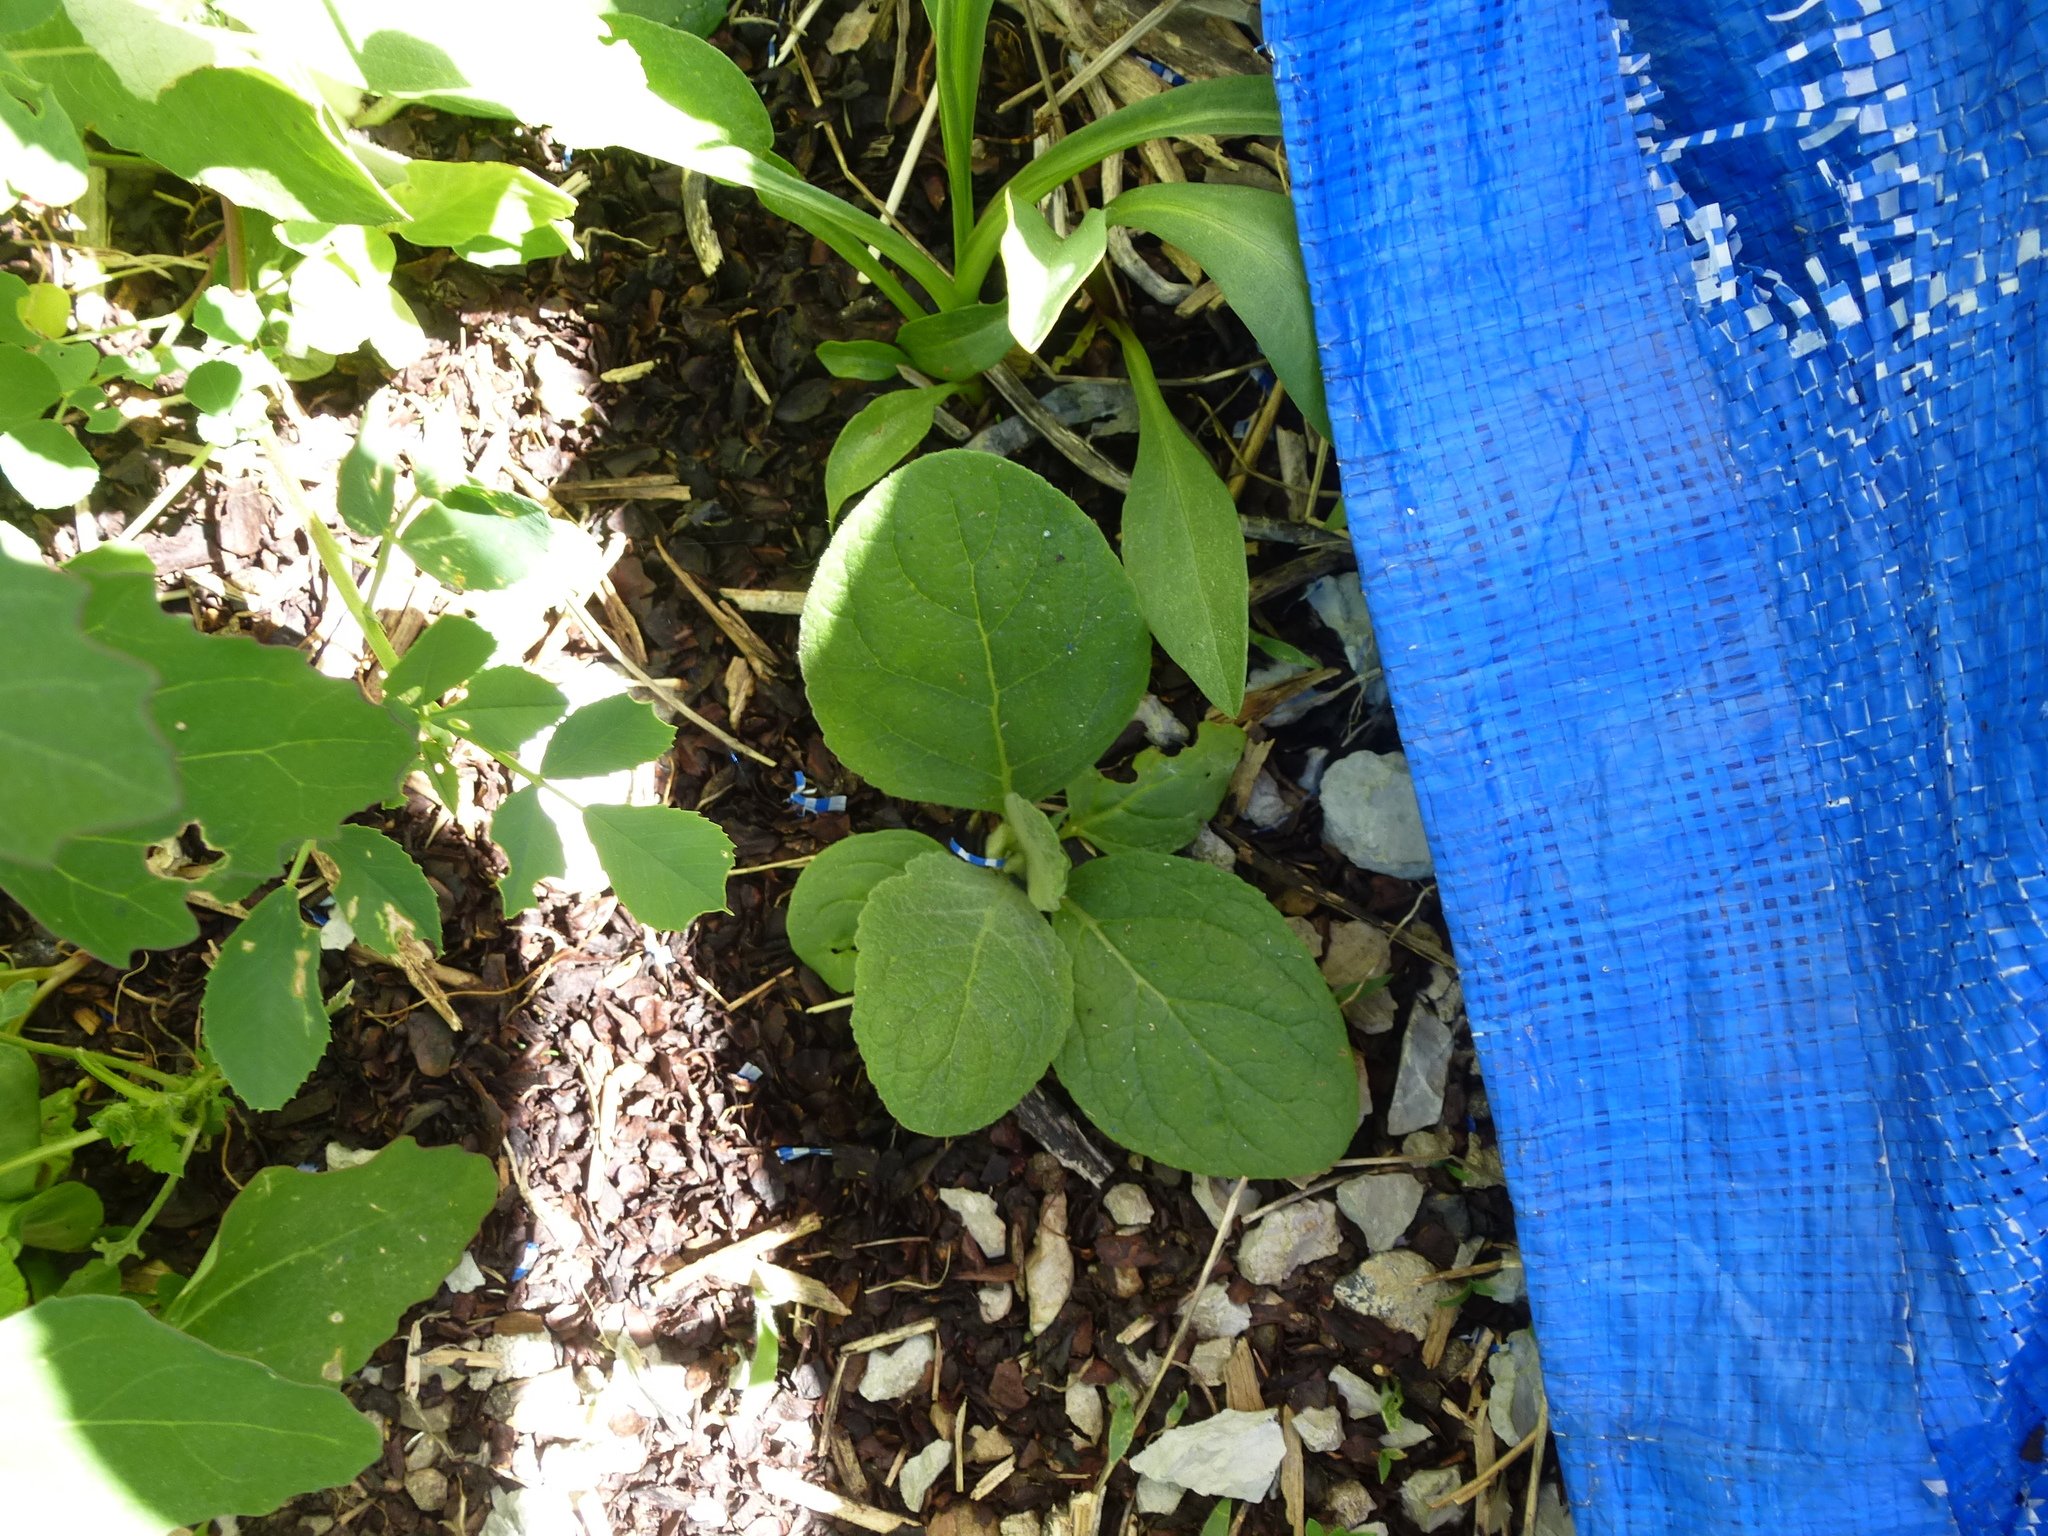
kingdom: Plantae
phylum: Tracheophyta
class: Magnoliopsida
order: Lamiales
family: Scrophulariaceae
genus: Verbascum
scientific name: Verbascum thapsus
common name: Common mullein
